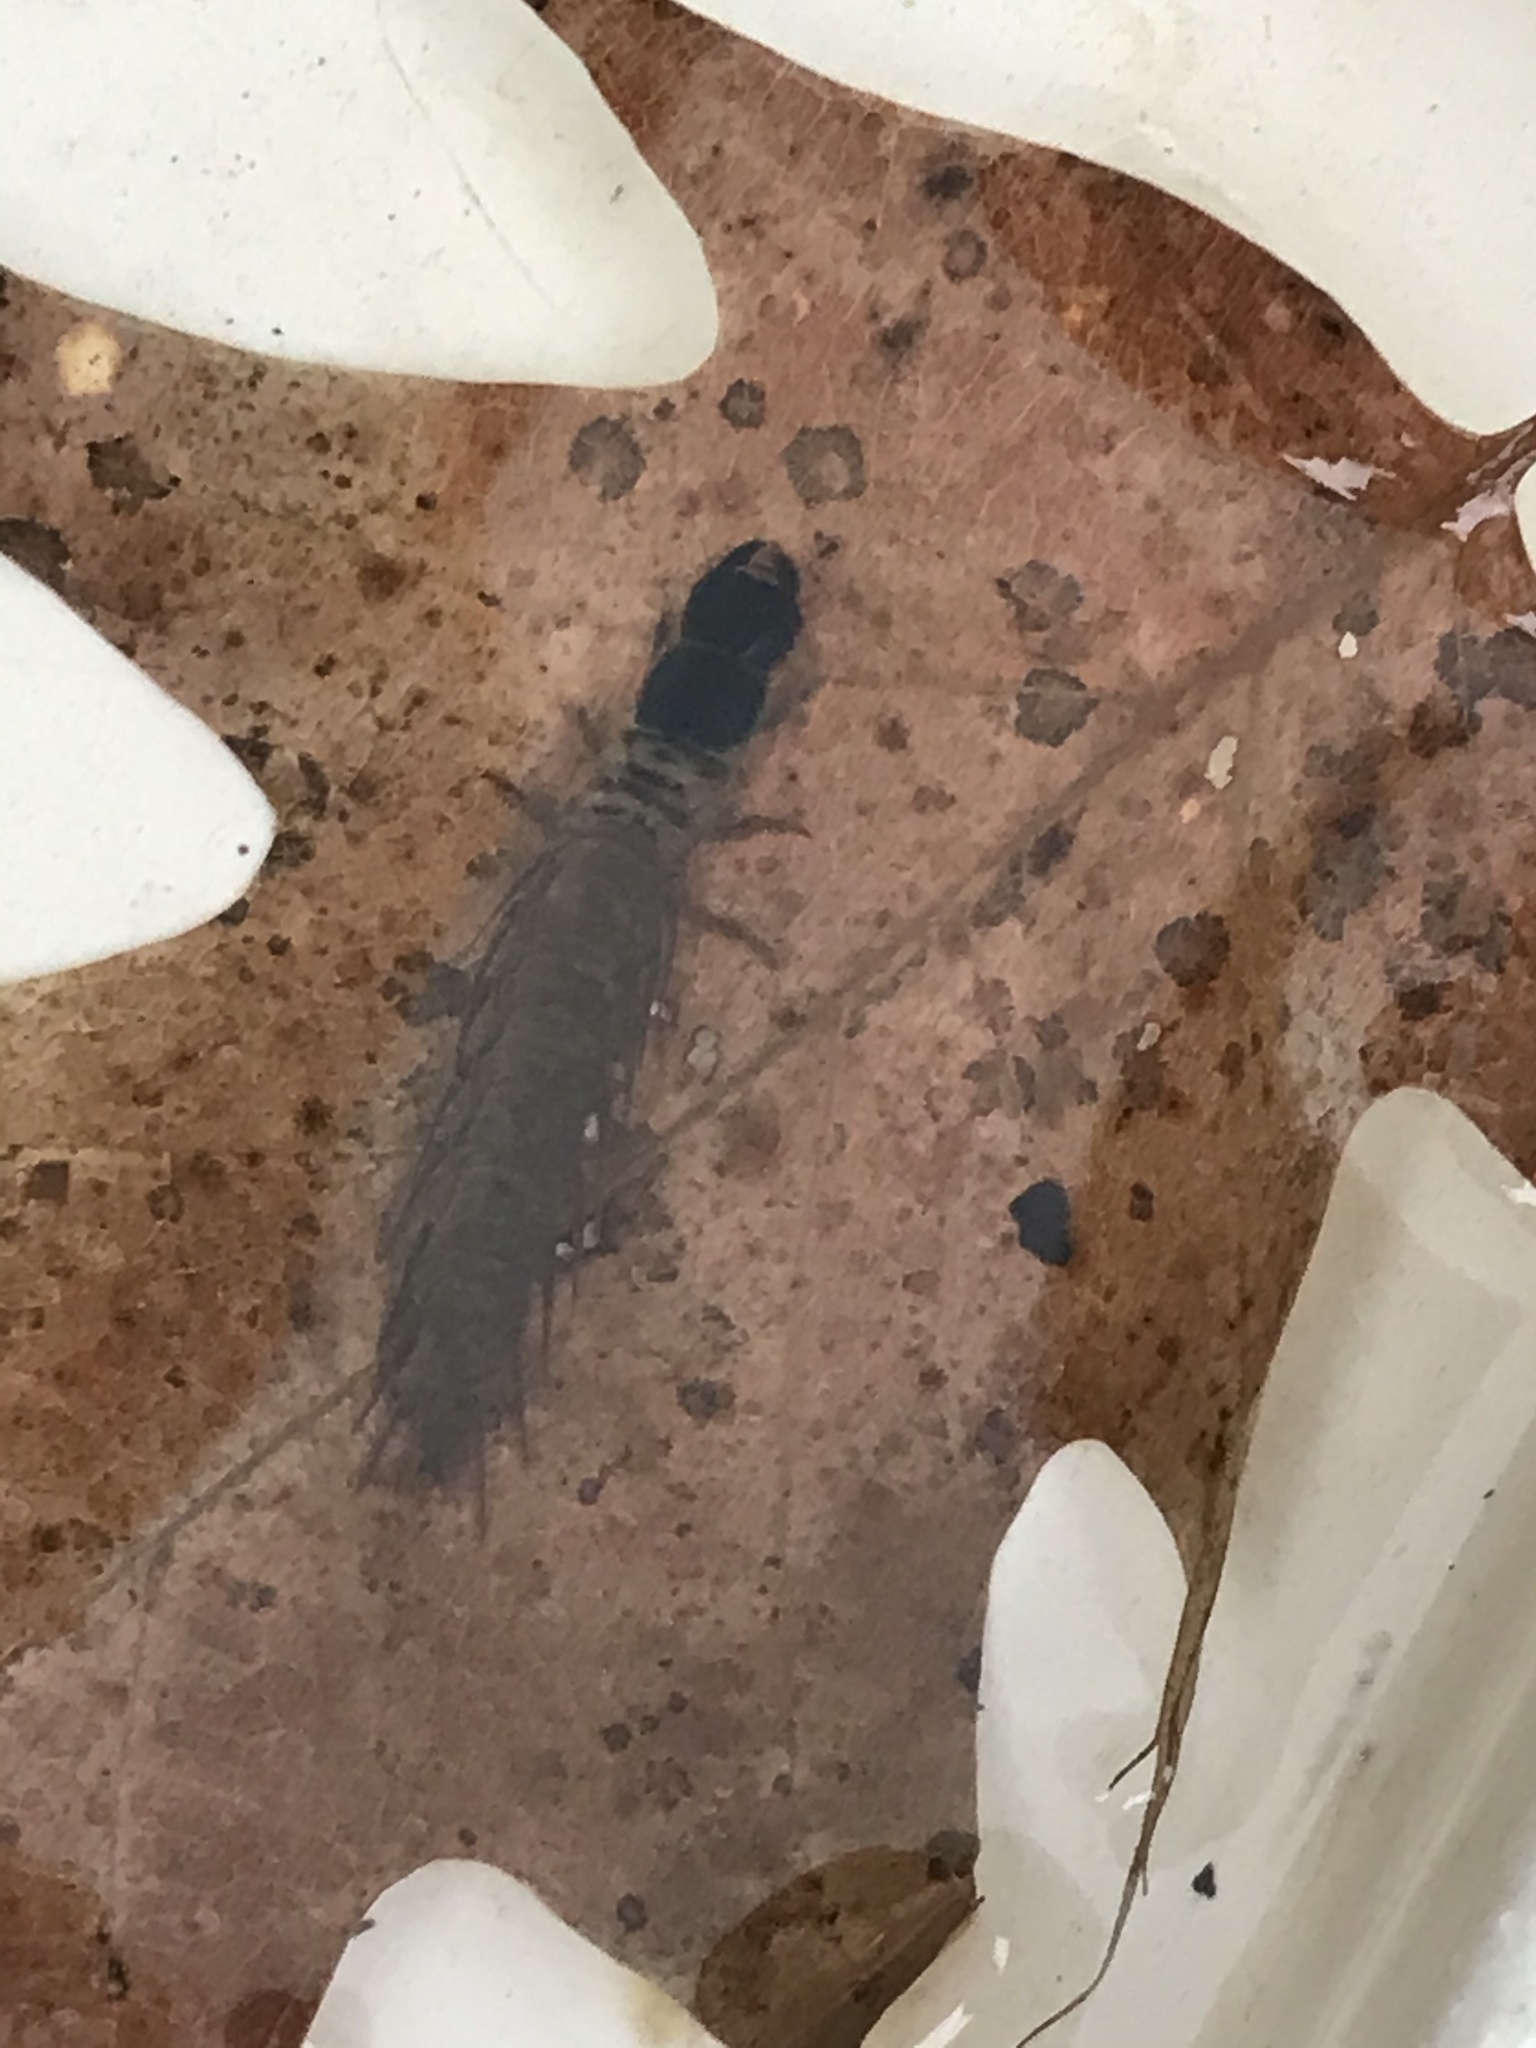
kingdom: Animalia
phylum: Arthropoda
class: Insecta
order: Megaloptera
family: Corydalidae
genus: Nigronia
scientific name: Nigronia serricornis
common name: Serrate dark fishfly
